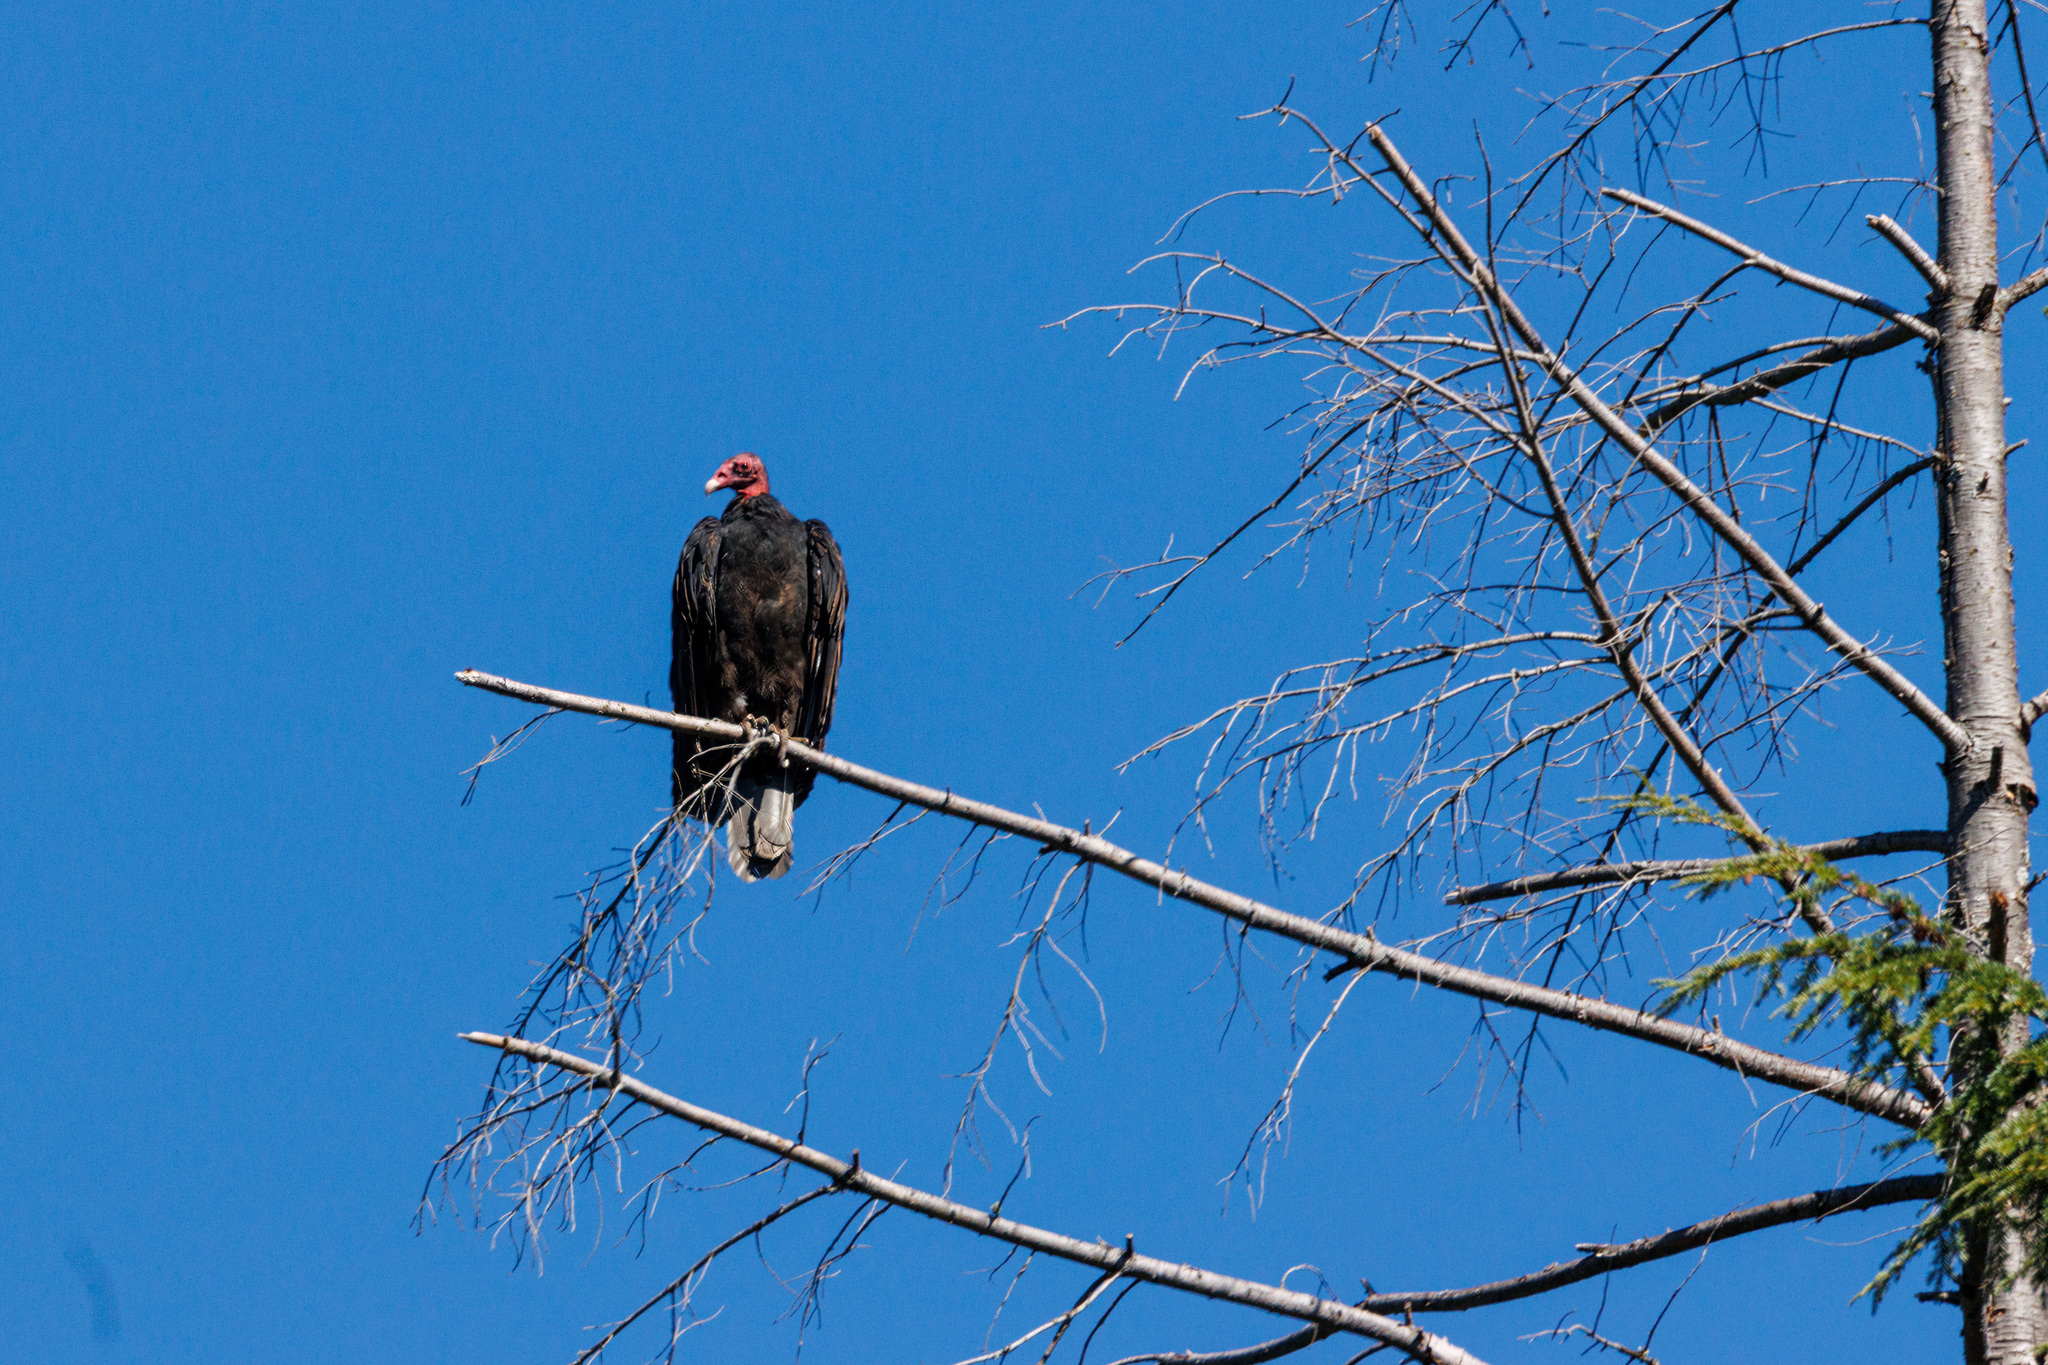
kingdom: Animalia
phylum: Chordata
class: Aves
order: Accipitriformes
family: Cathartidae
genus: Cathartes
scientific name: Cathartes aura
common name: Turkey vulture
